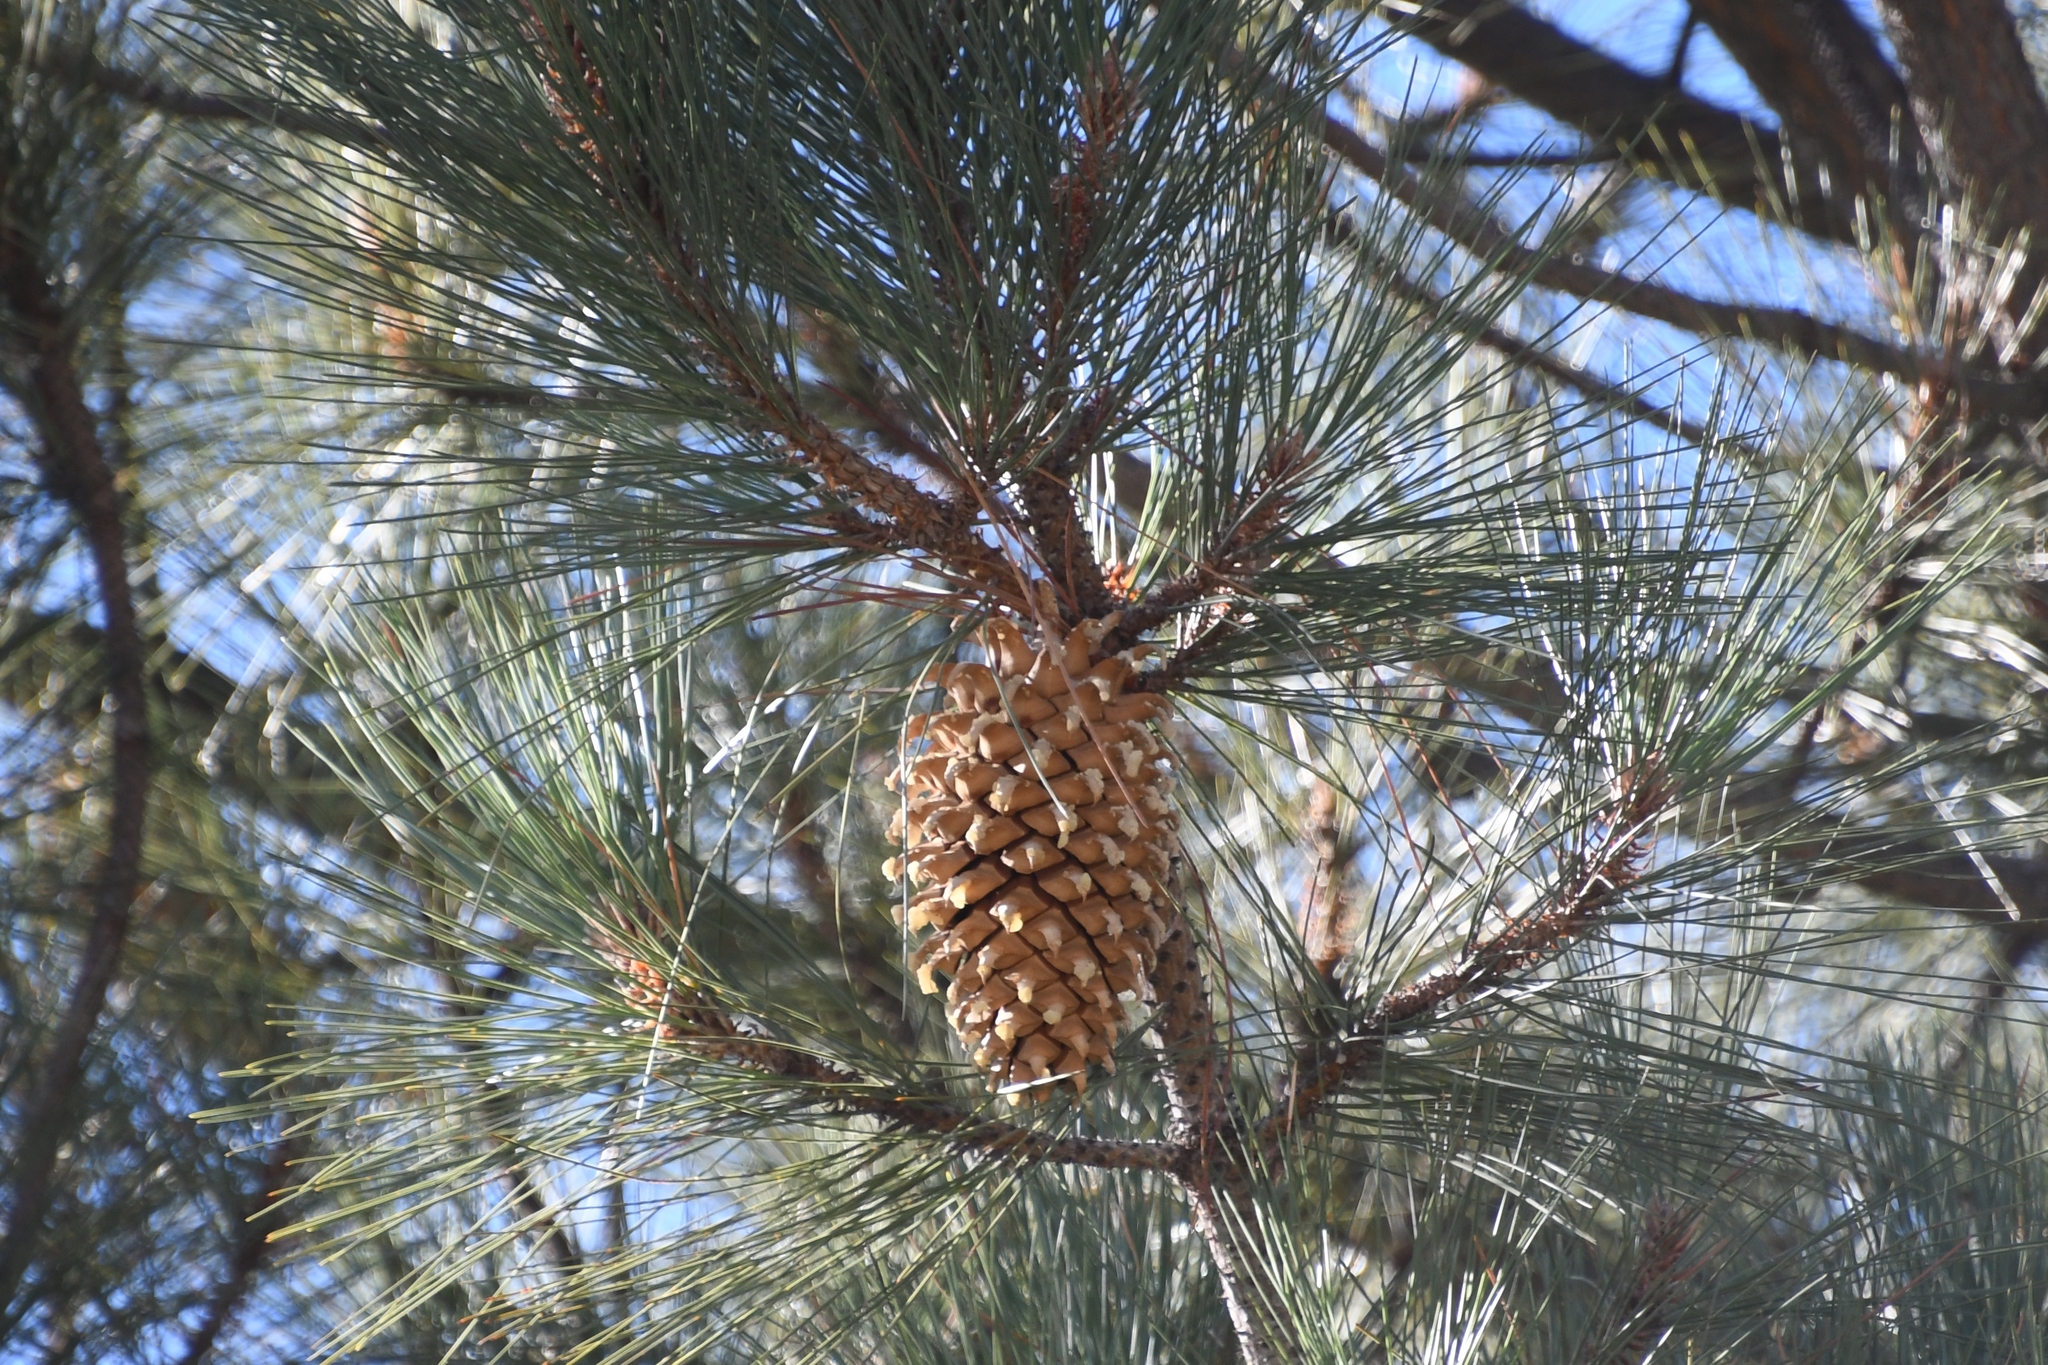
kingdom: Plantae
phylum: Tracheophyta
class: Pinopsida
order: Pinales
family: Pinaceae
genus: Pinus
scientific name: Pinus coulteri
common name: Coulter pine
